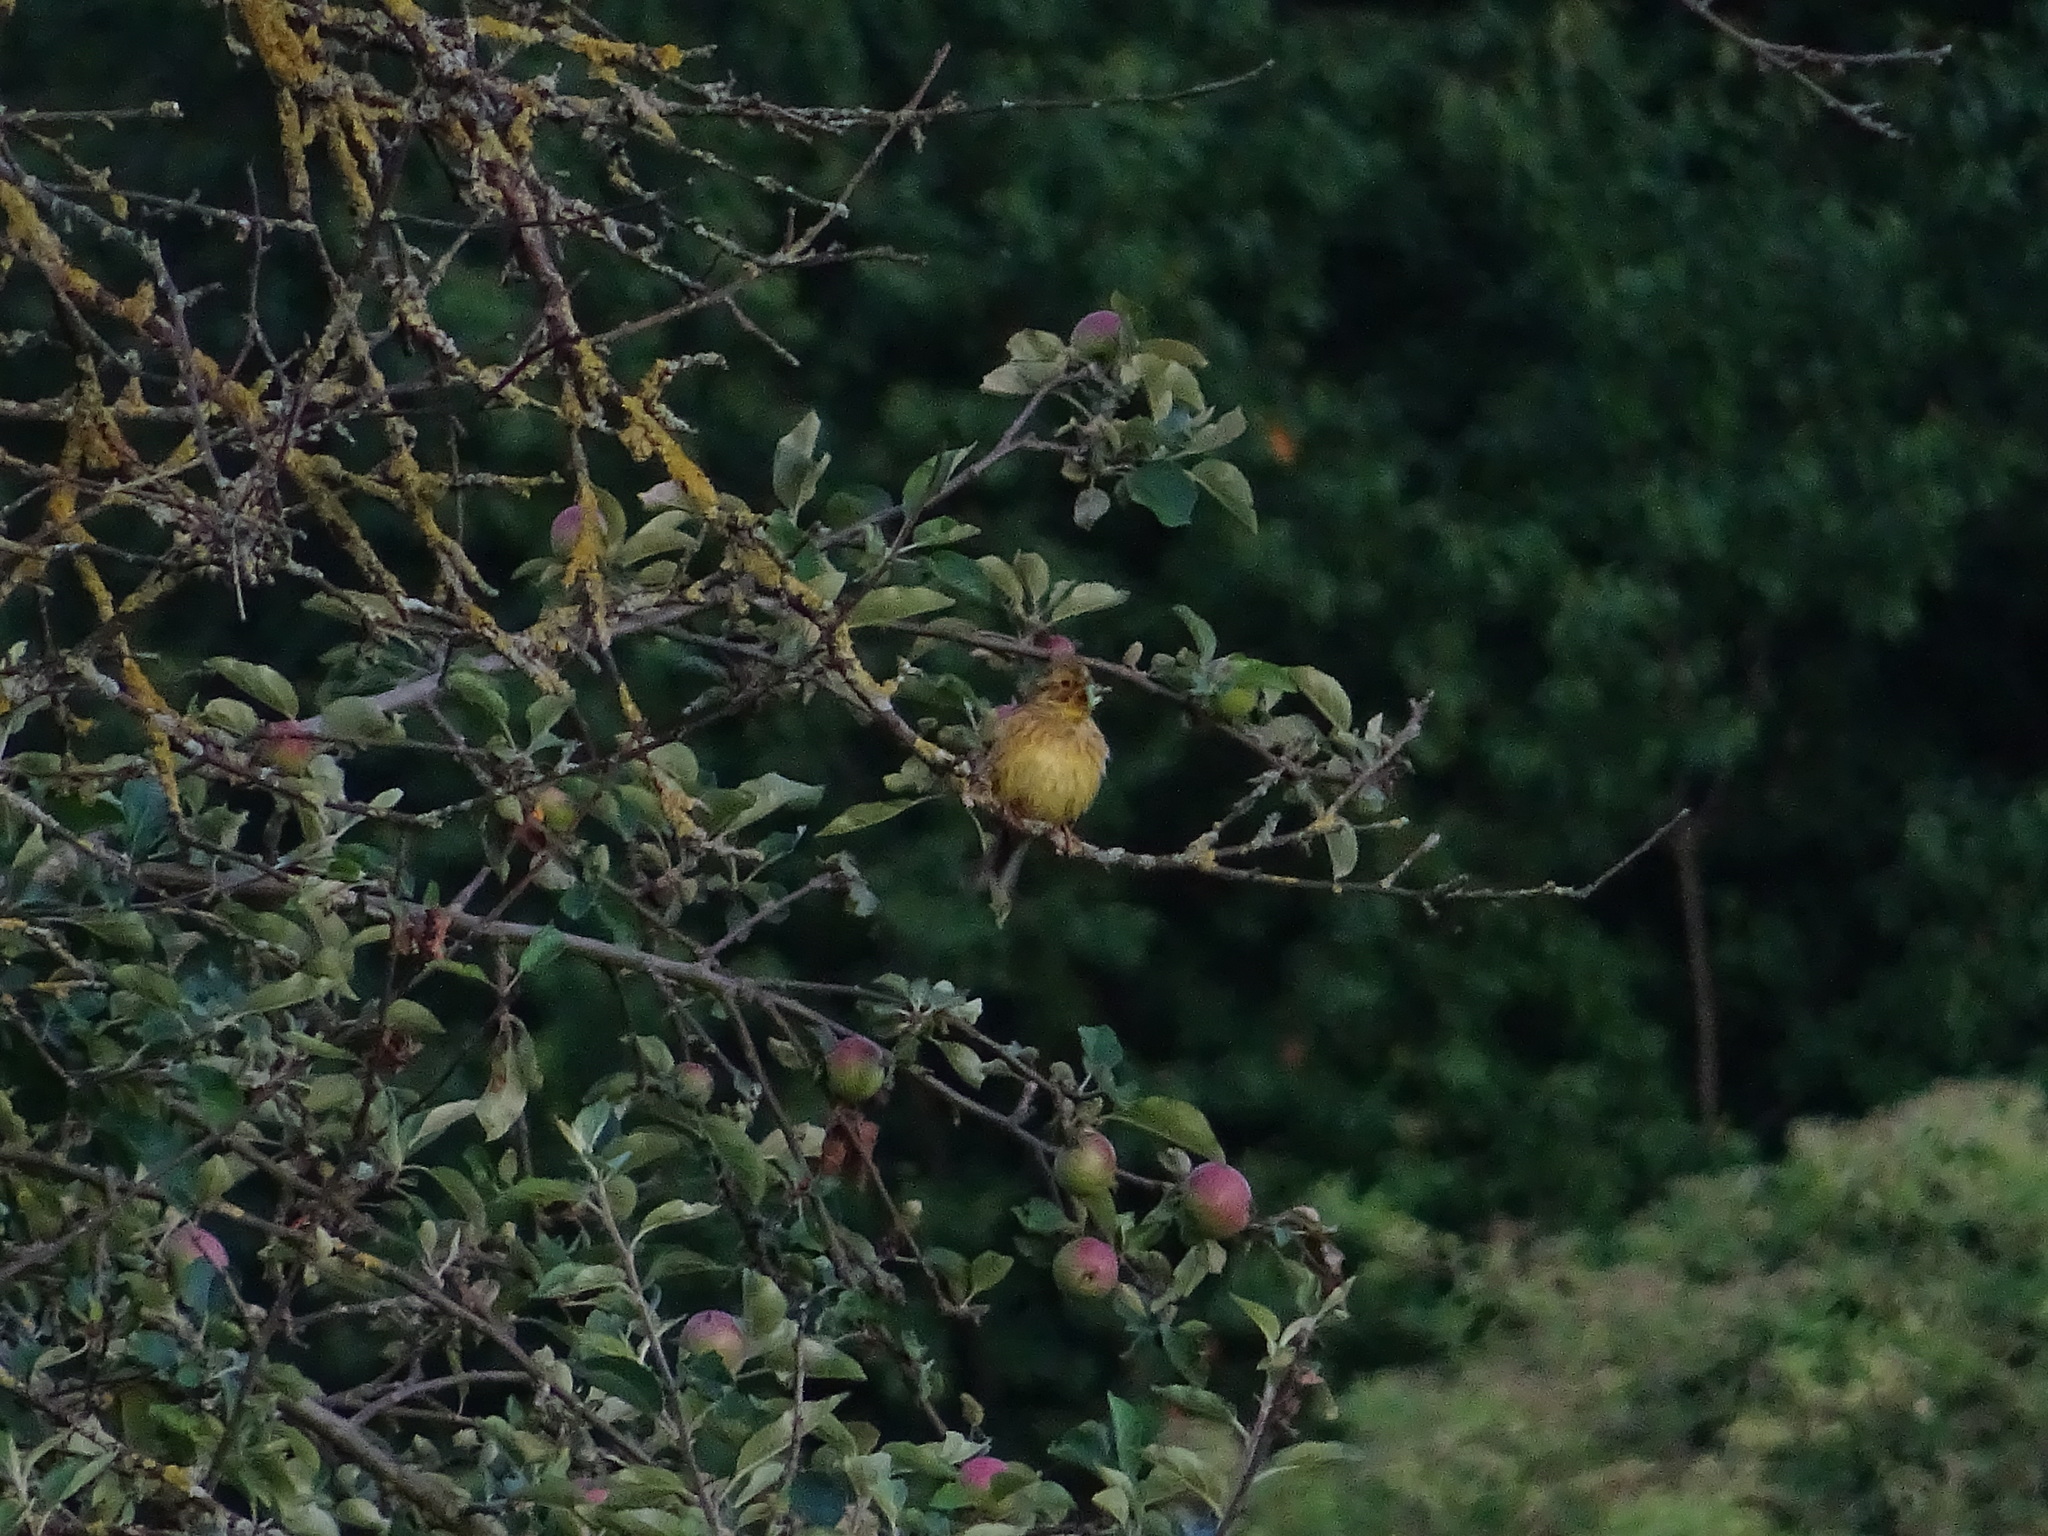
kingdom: Animalia
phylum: Chordata
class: Aves
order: Passeriformes
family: Emberizidae
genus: Emberiza
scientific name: Emberiza citrinella
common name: Yellowhammer
